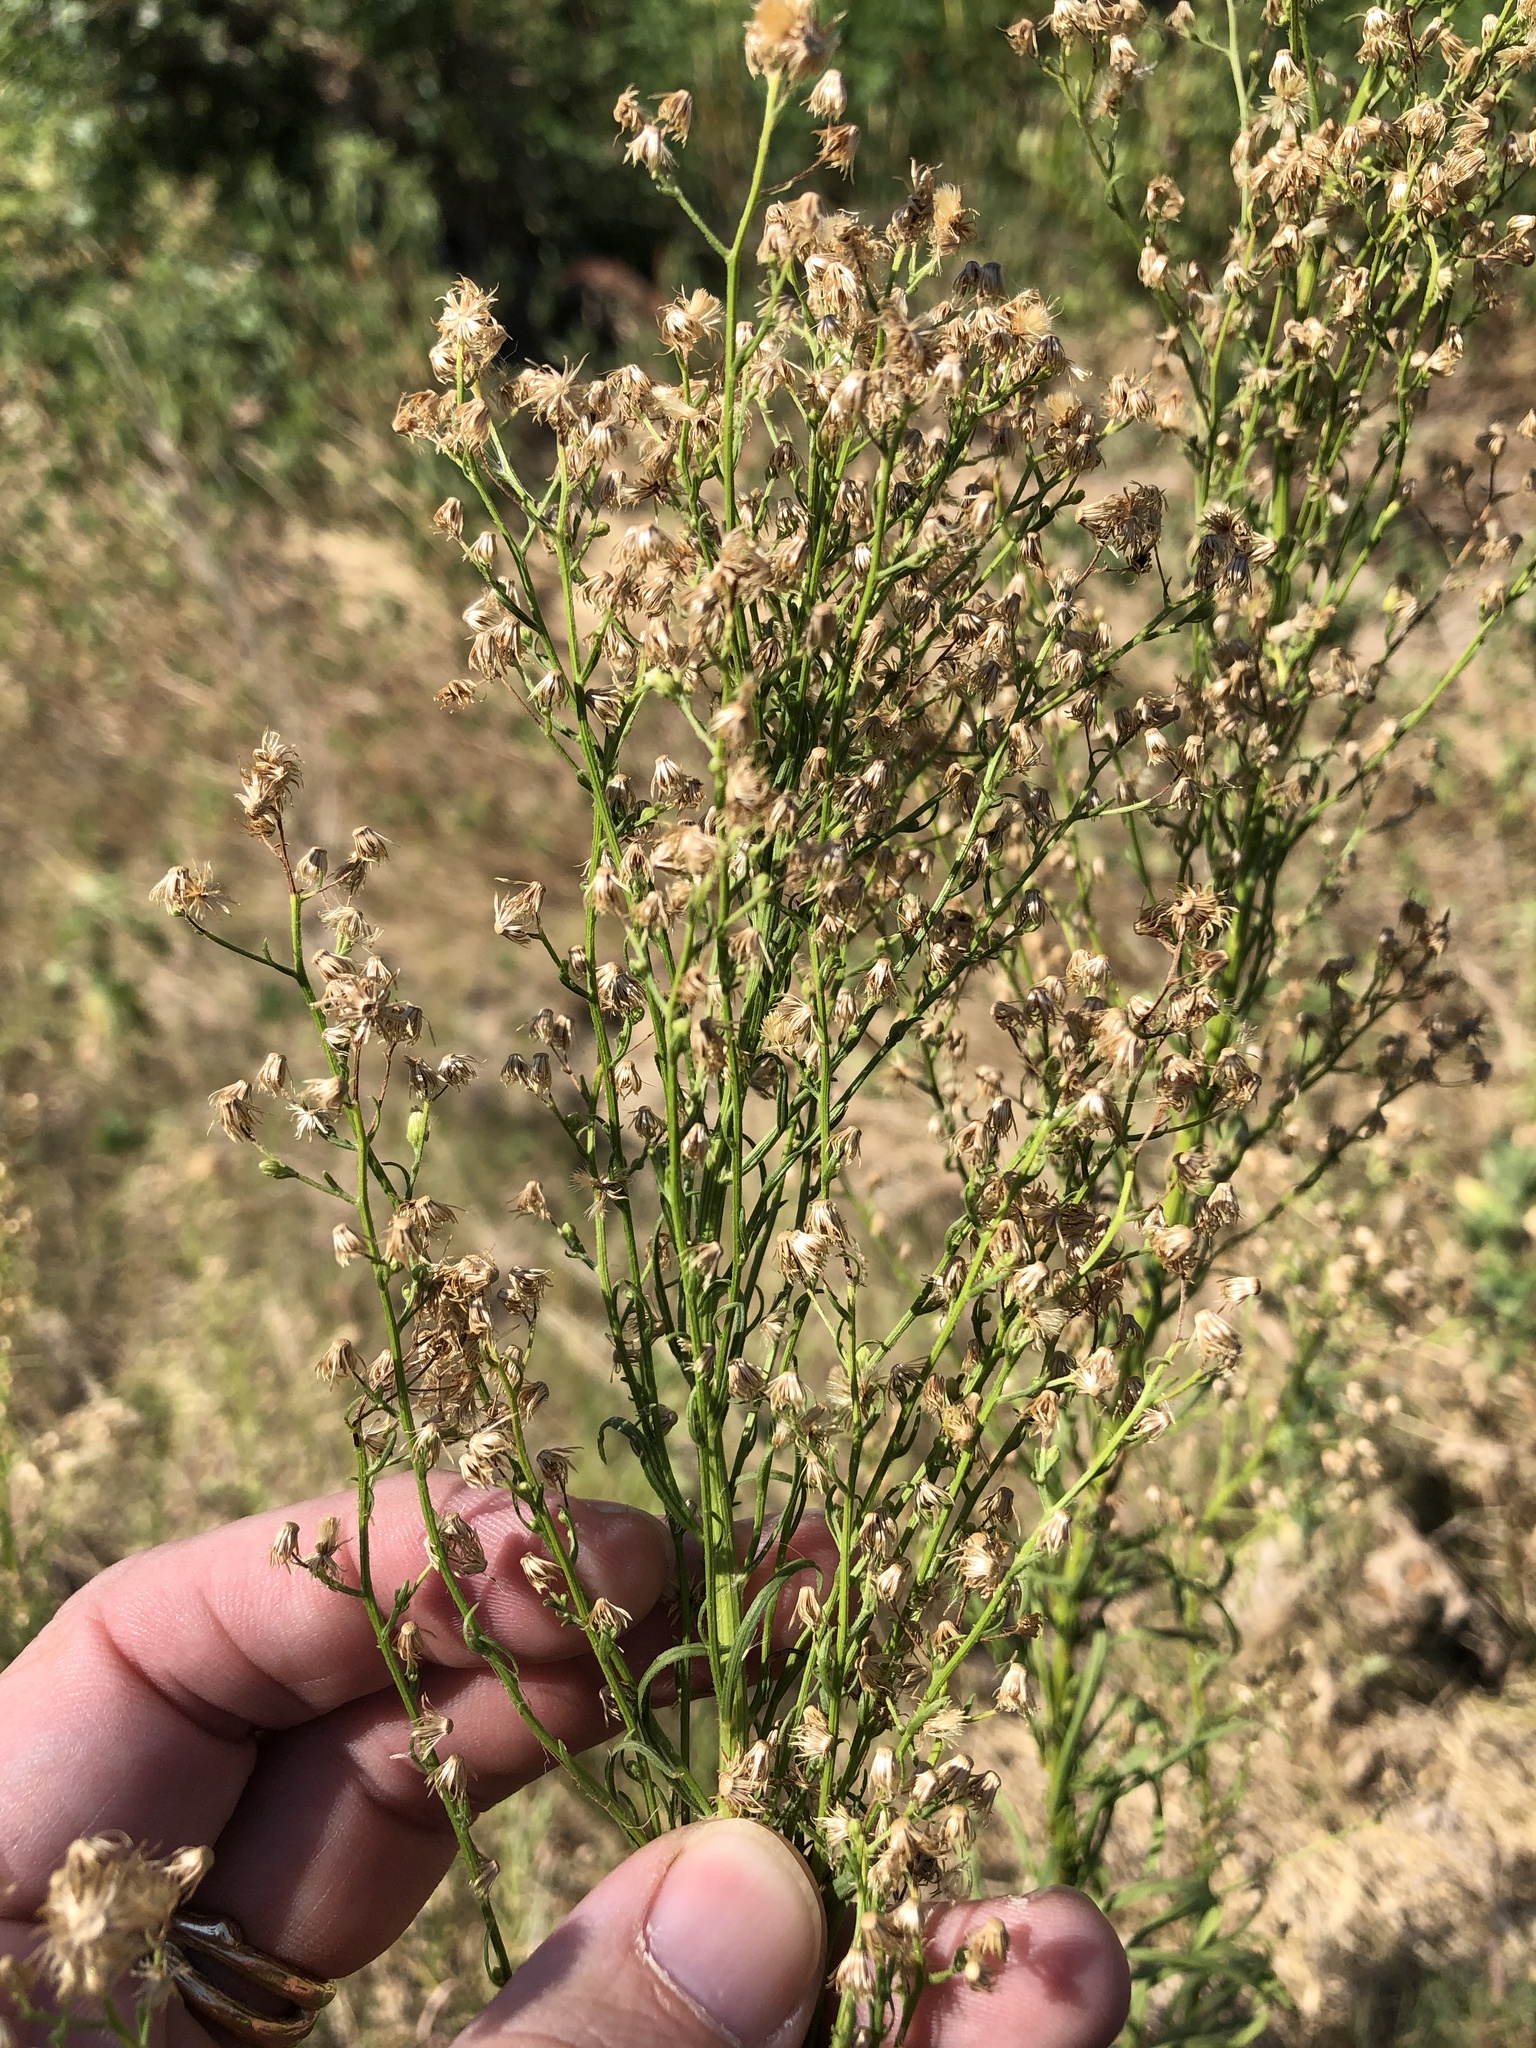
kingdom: Plantae
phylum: Tracheophyta
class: Magnoliopsida
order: Asterales
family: Asteraceae
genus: Erigeron
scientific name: Erigeron canadensis
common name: Canadian fleabane
